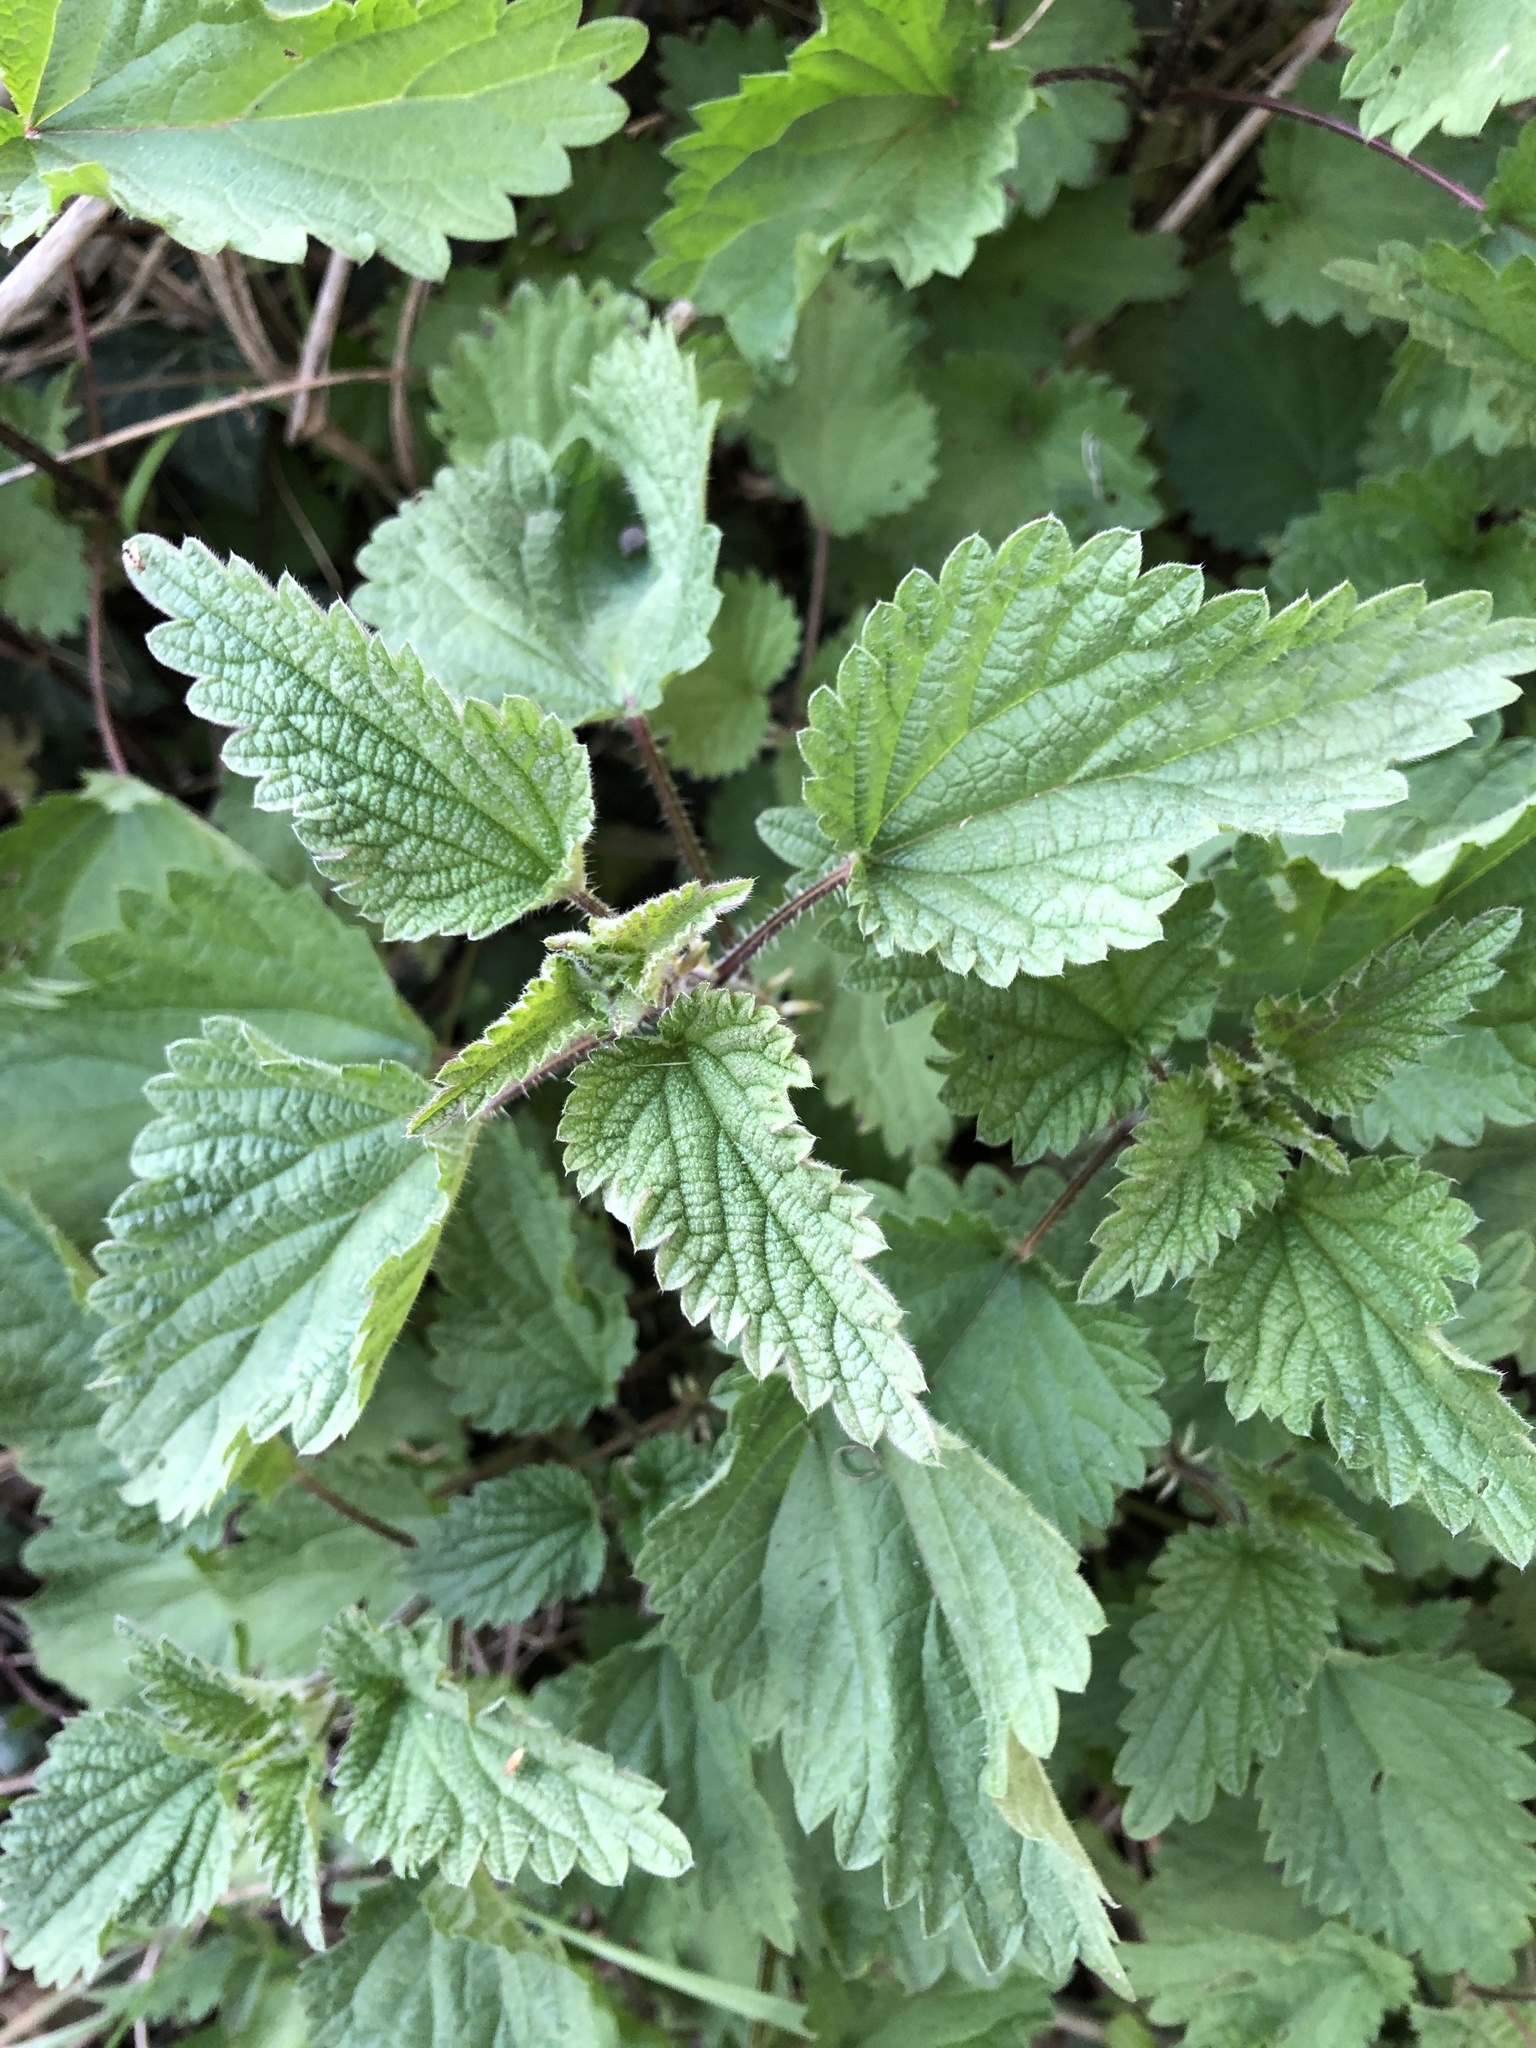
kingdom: Plantae
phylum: Tracheophyta
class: Magnoliopsida
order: Rosales
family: Urticaceae
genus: Urtica
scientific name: Urtica dioica
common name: Common nettle
